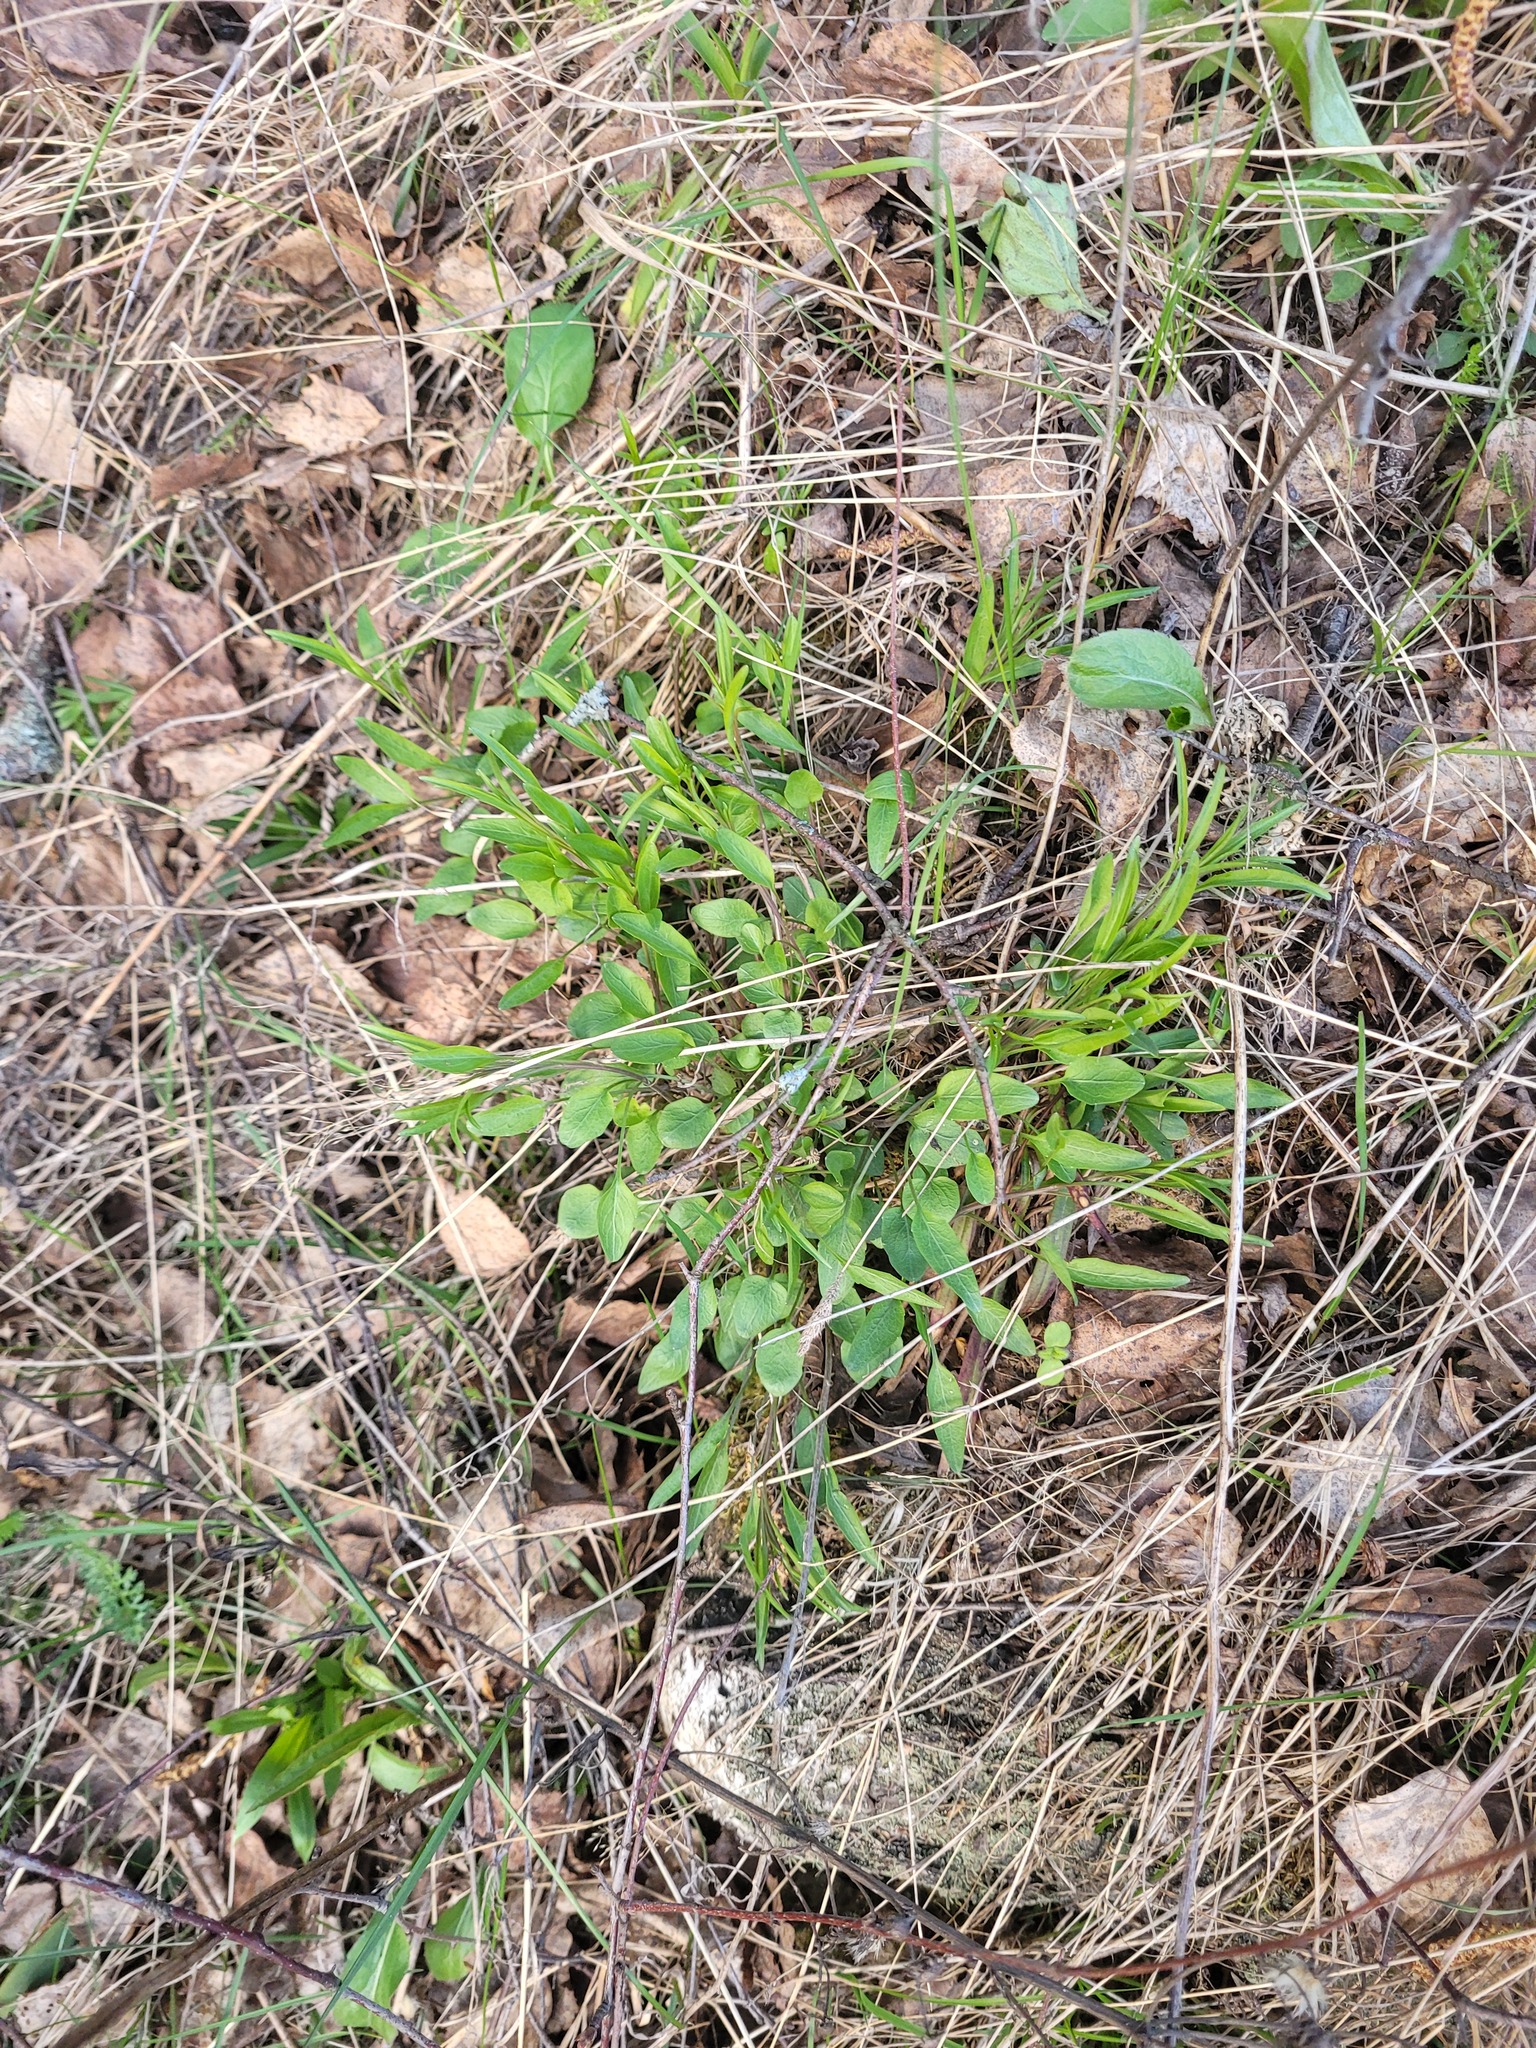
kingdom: Plantae
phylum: Tracheophyta
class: Magnoliopsida
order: Asterales
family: Campanulaceae
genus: Campanula
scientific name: Campanula rotundifolia
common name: Harebell
